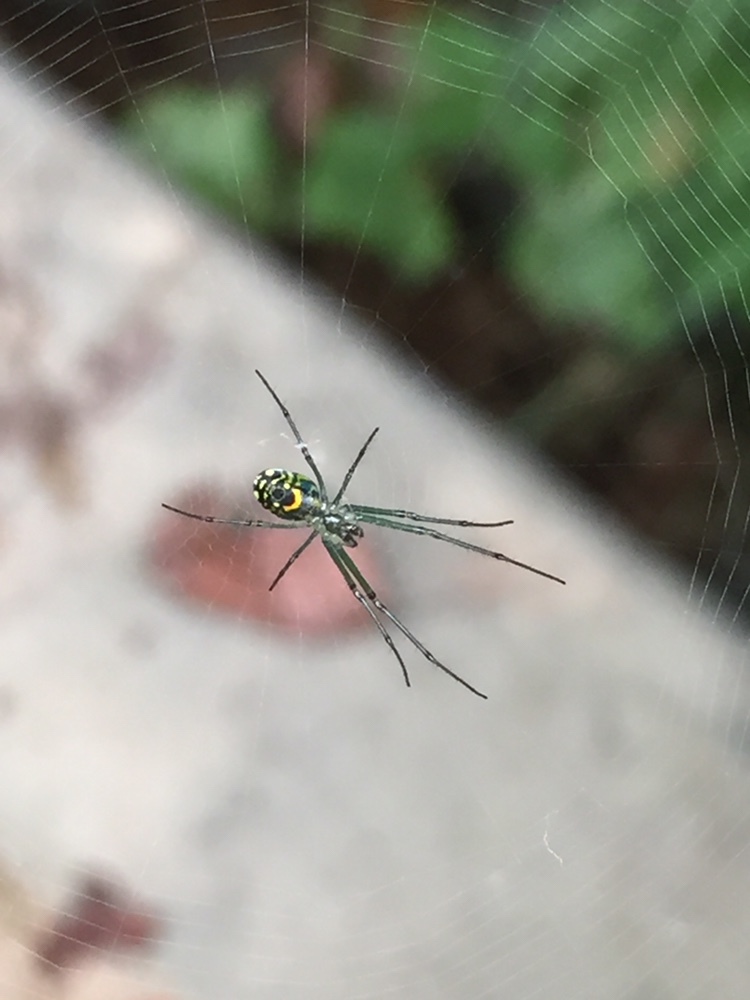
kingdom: Animalia
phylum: Arthropoda
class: Arachnida
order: Araneae
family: Tetragnathidae
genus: Leucauge
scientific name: Leucauge venusta
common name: Longjawed orb weavers
